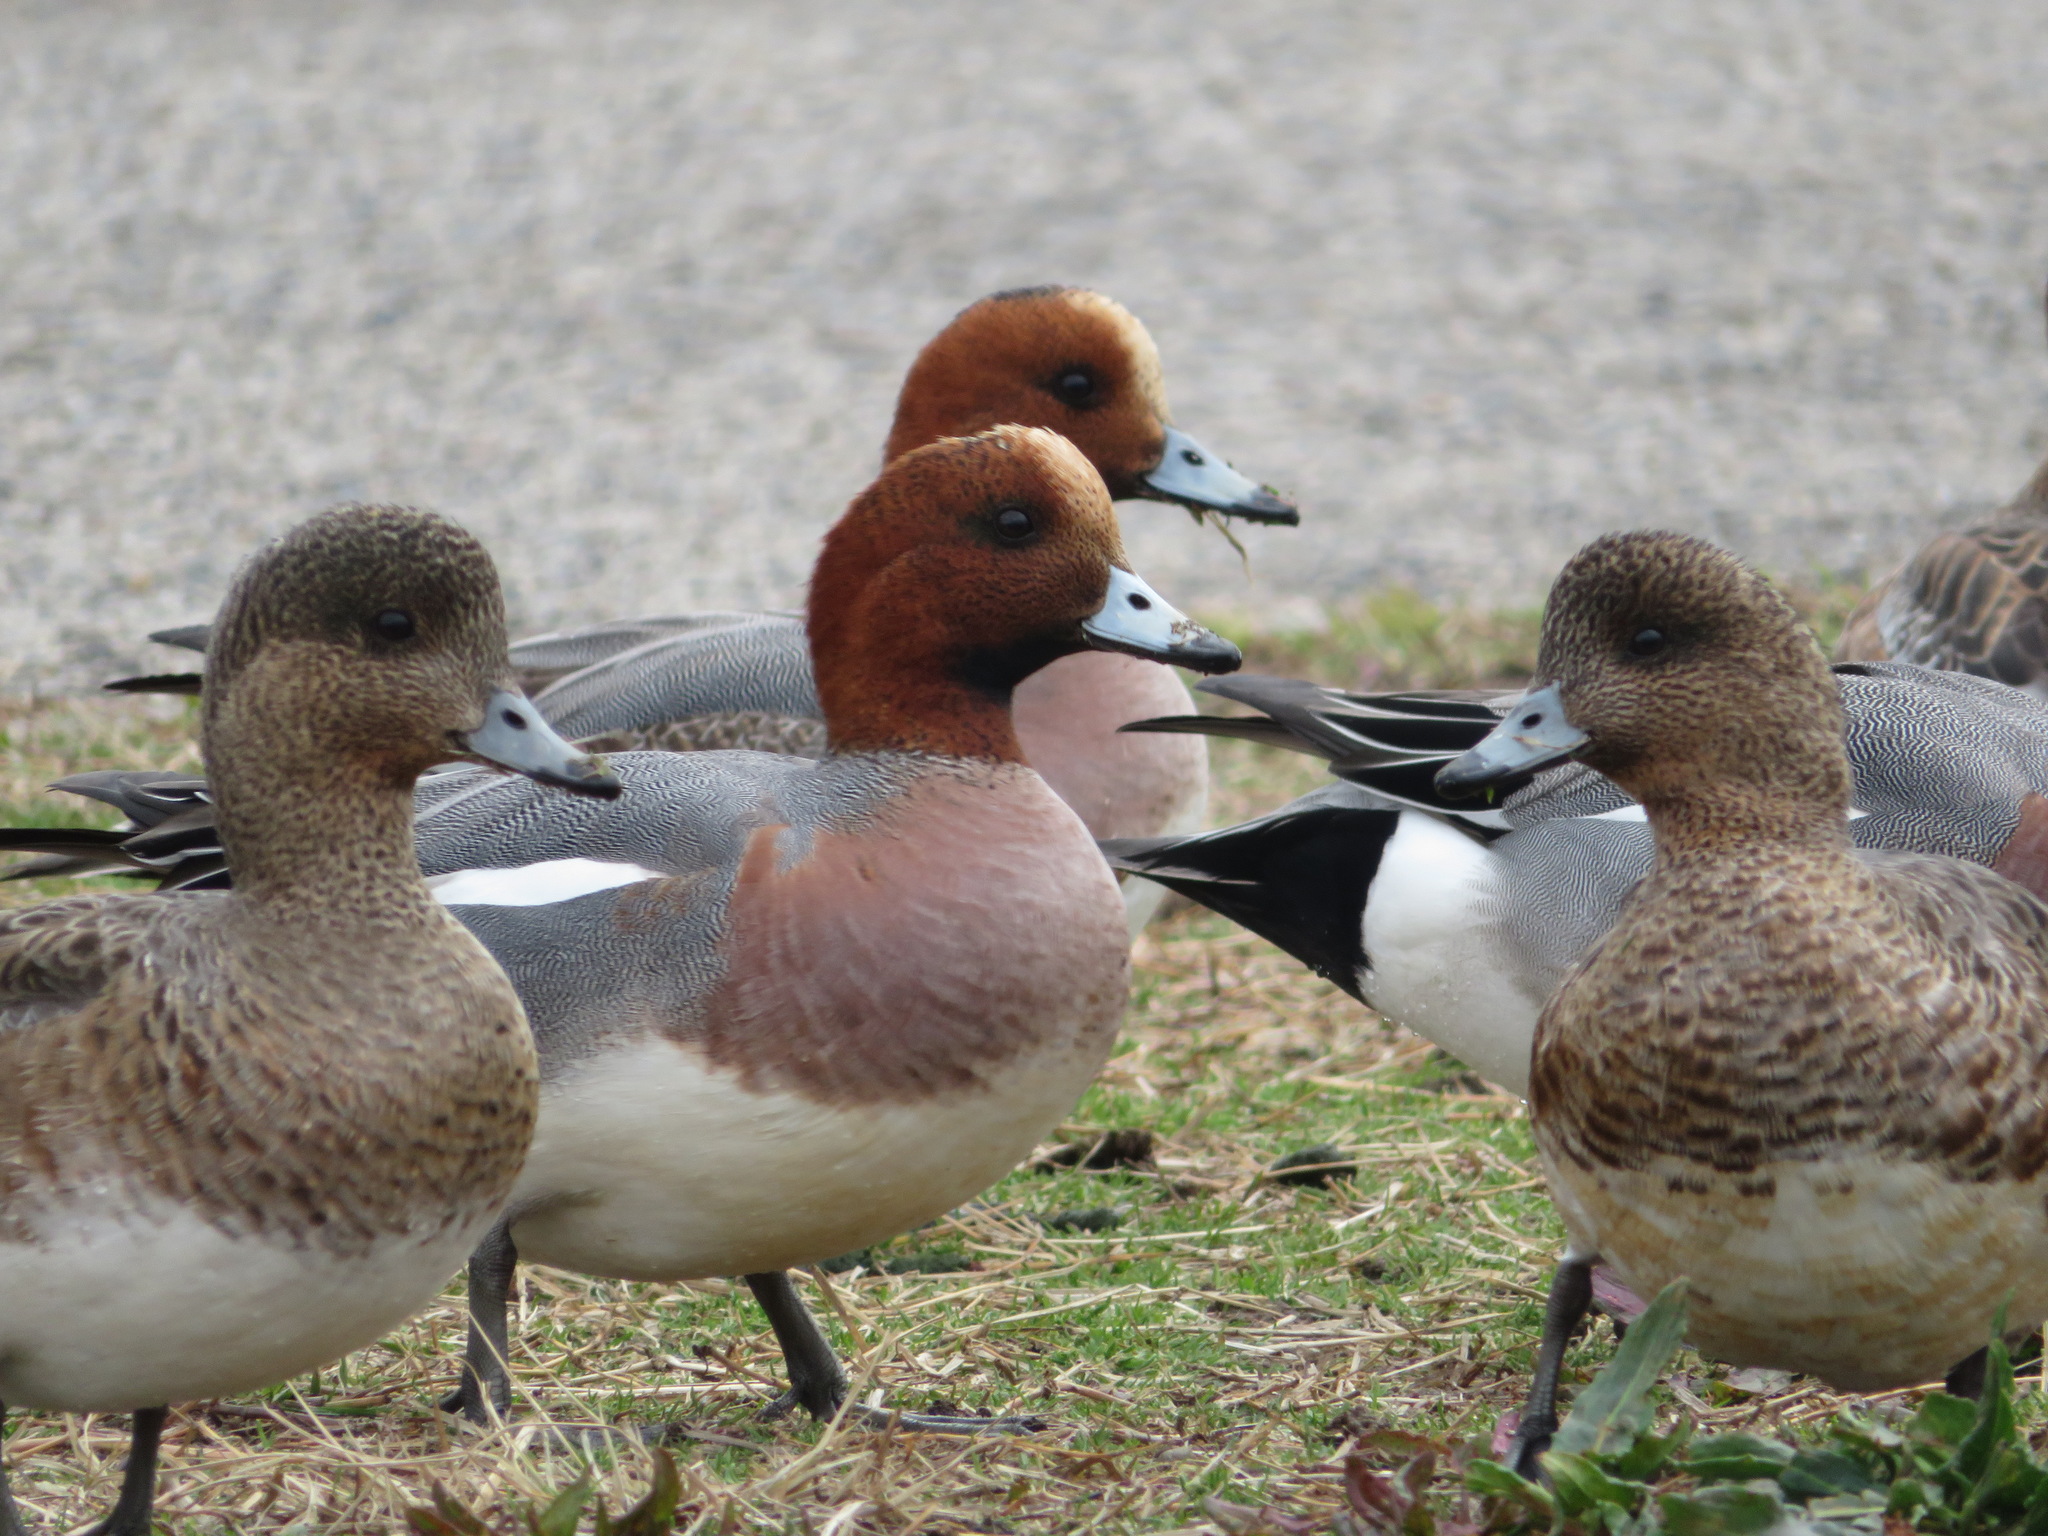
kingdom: Animalia
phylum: Chordata
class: Aves
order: Anseriformes
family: Anatidae
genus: Mareca
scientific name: Mareca penelope
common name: Eurasian wigeon
